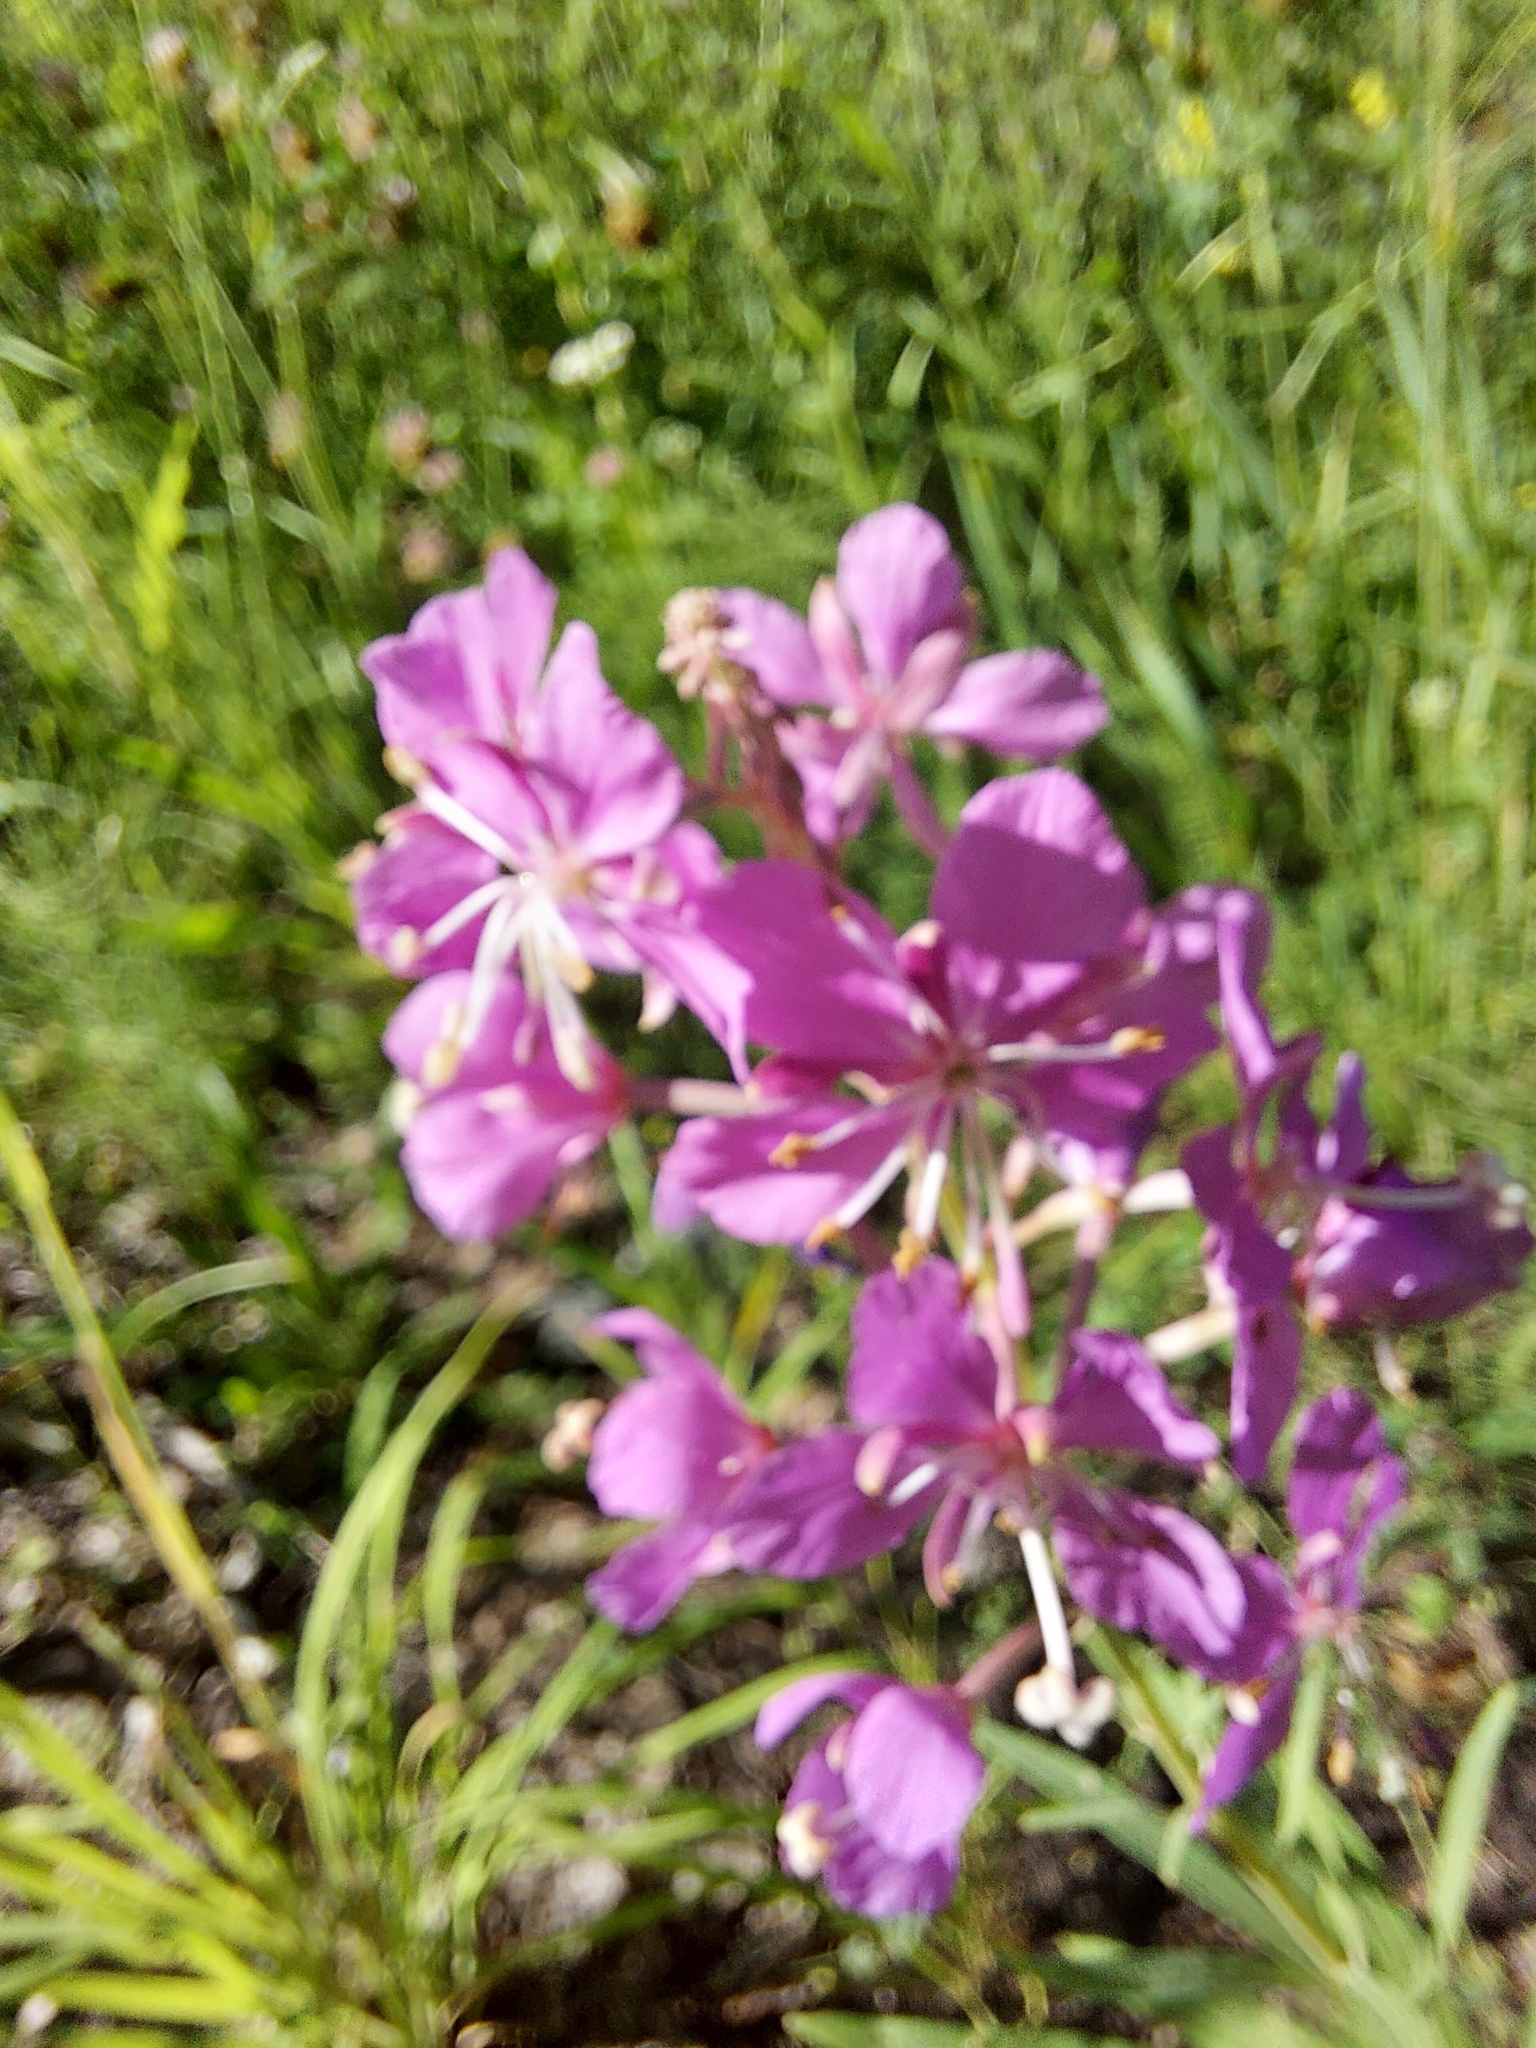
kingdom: Plantae
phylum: Tracheophyta
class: Magnoliopsida
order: Myrtales
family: Onagraceae
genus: Chamaenerion
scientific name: Chamaenerion angustifolium
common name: Fireweed
